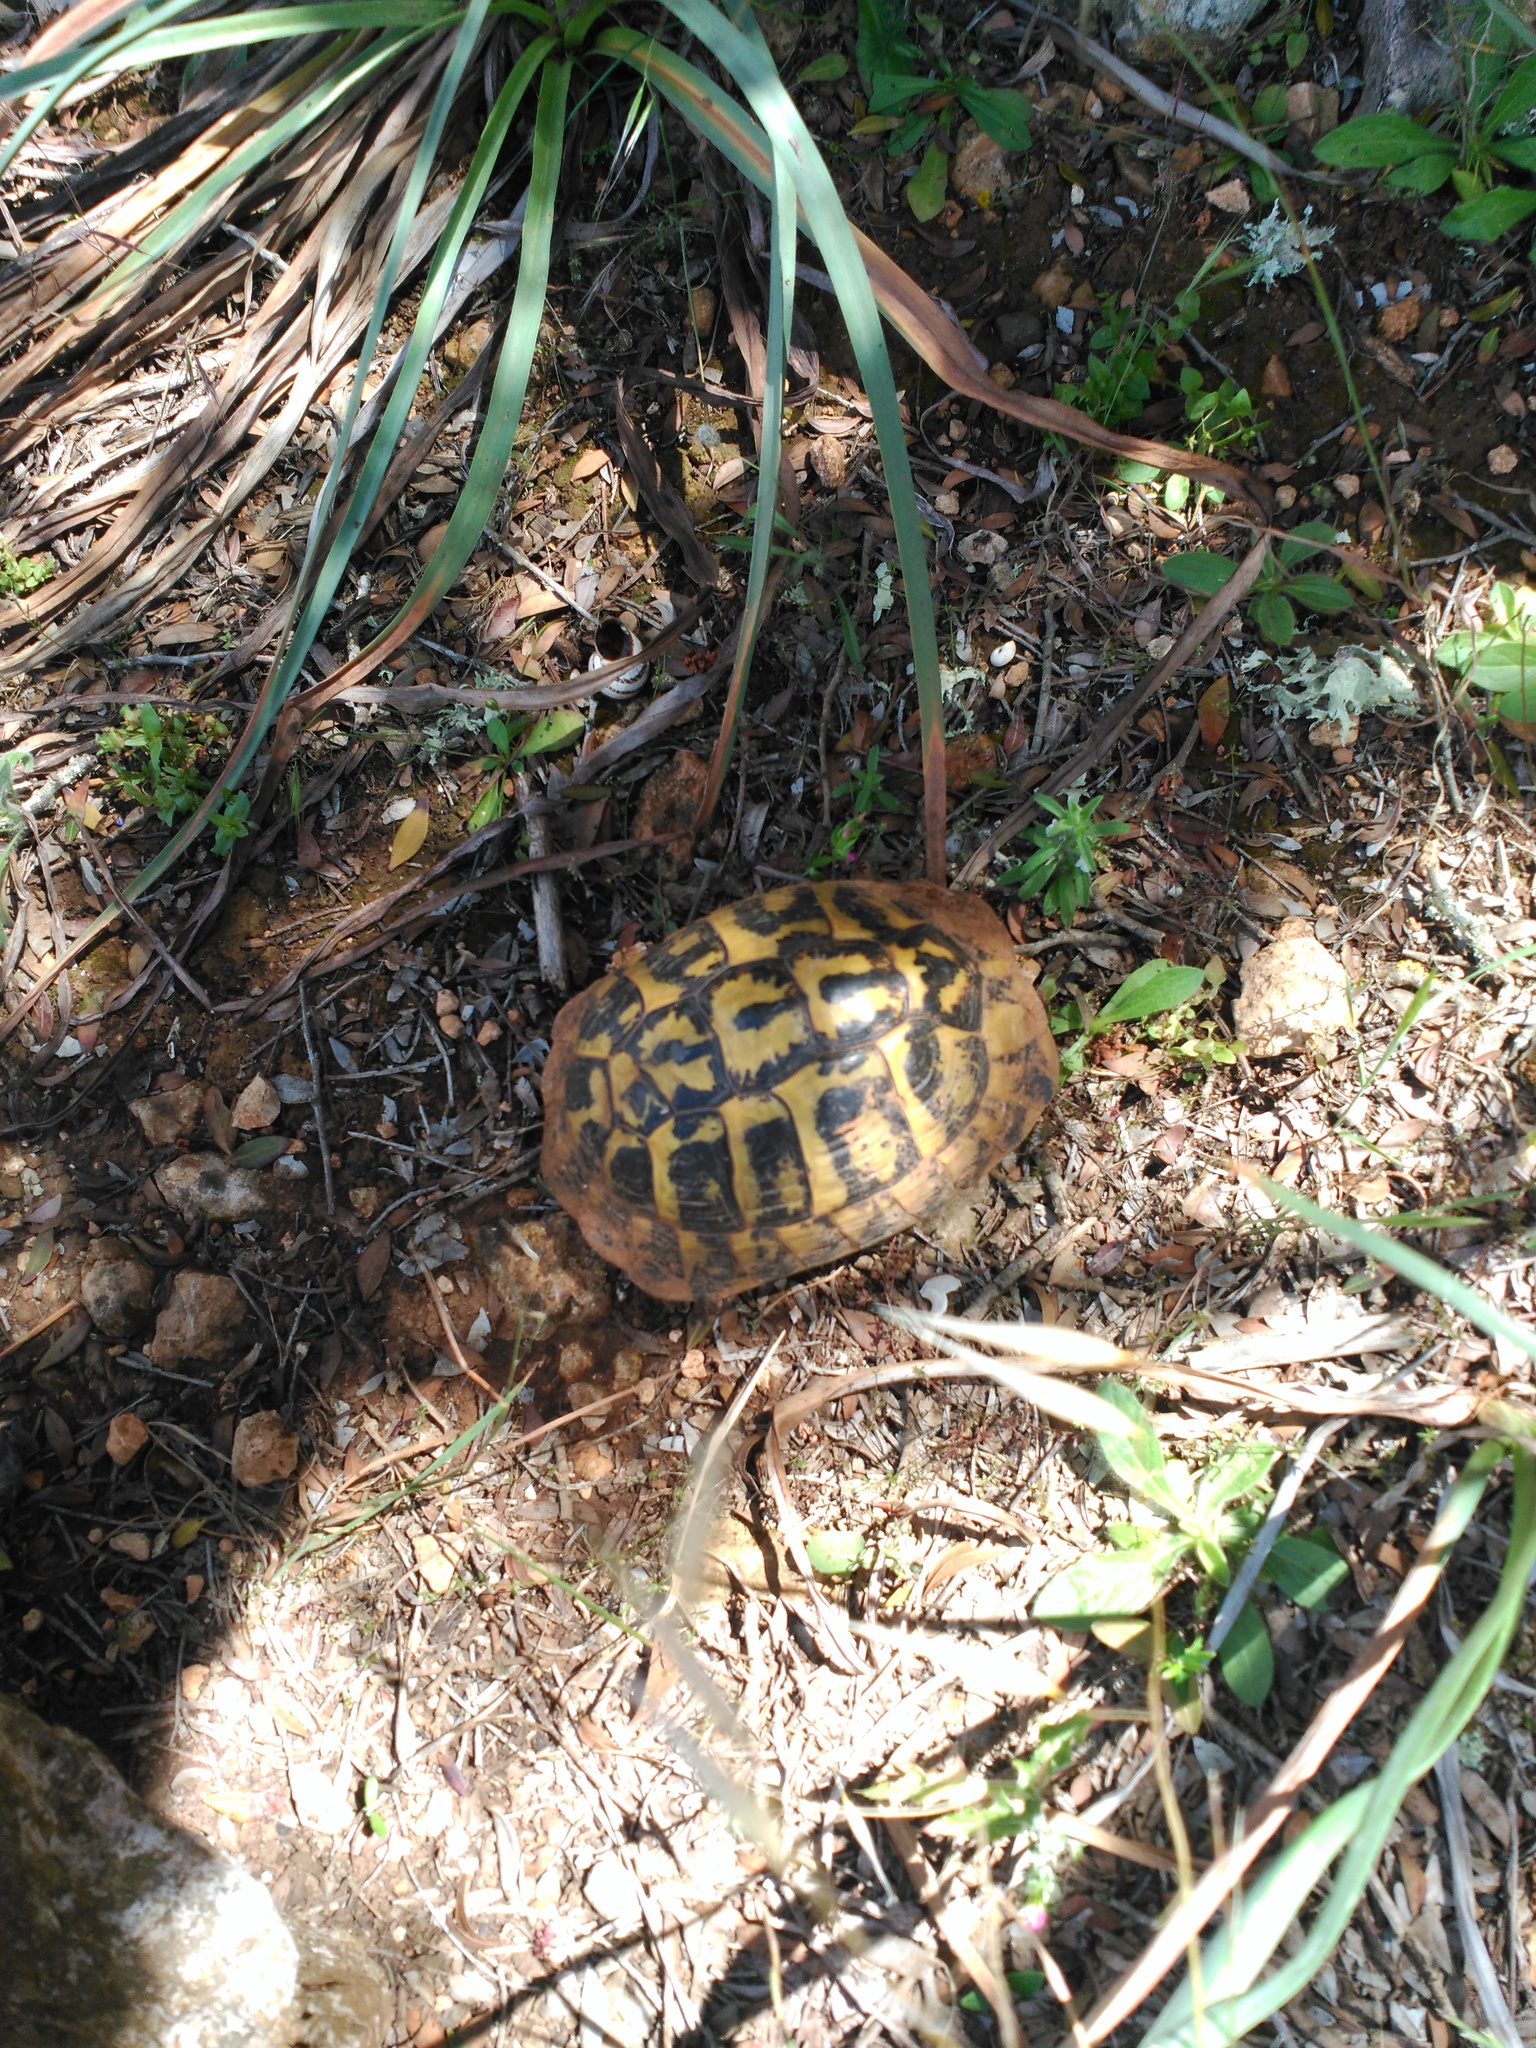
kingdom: Animalia
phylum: Chordata
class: Testudines
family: Testudinidae
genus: Testudo
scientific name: Testudo hermanni
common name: Hermann's tortoise
